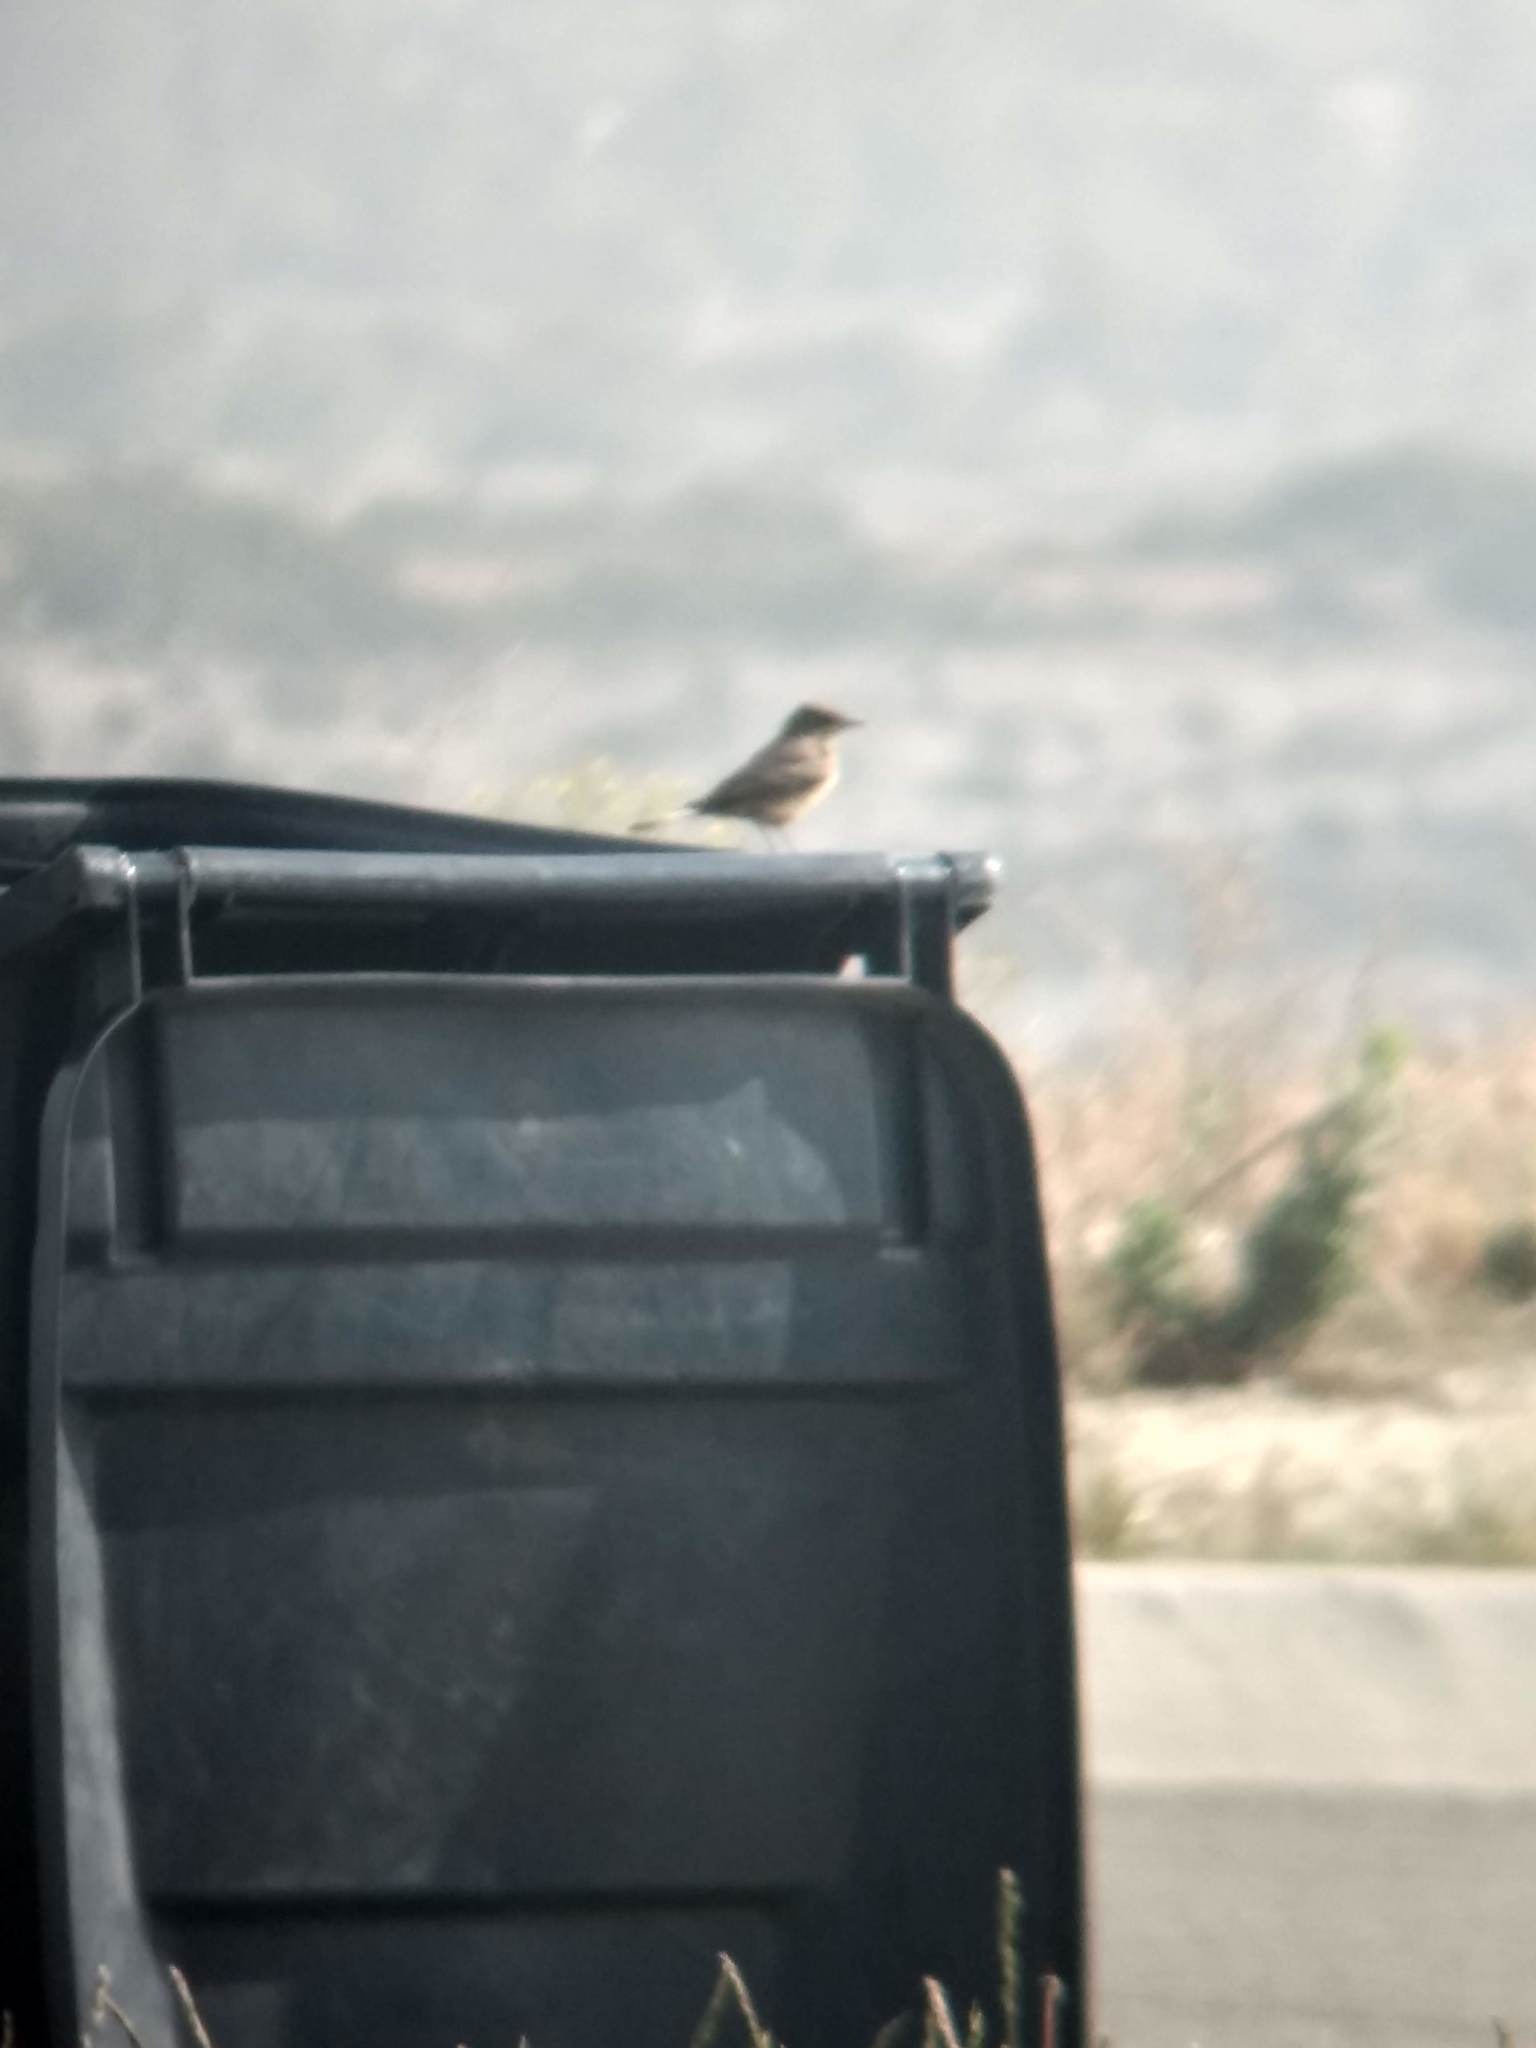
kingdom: Animalia
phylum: Chordata
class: Aves
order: Passeriformes
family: Tyrannidae
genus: Sayornis
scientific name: Sayornis saya
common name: Say's phoebe
